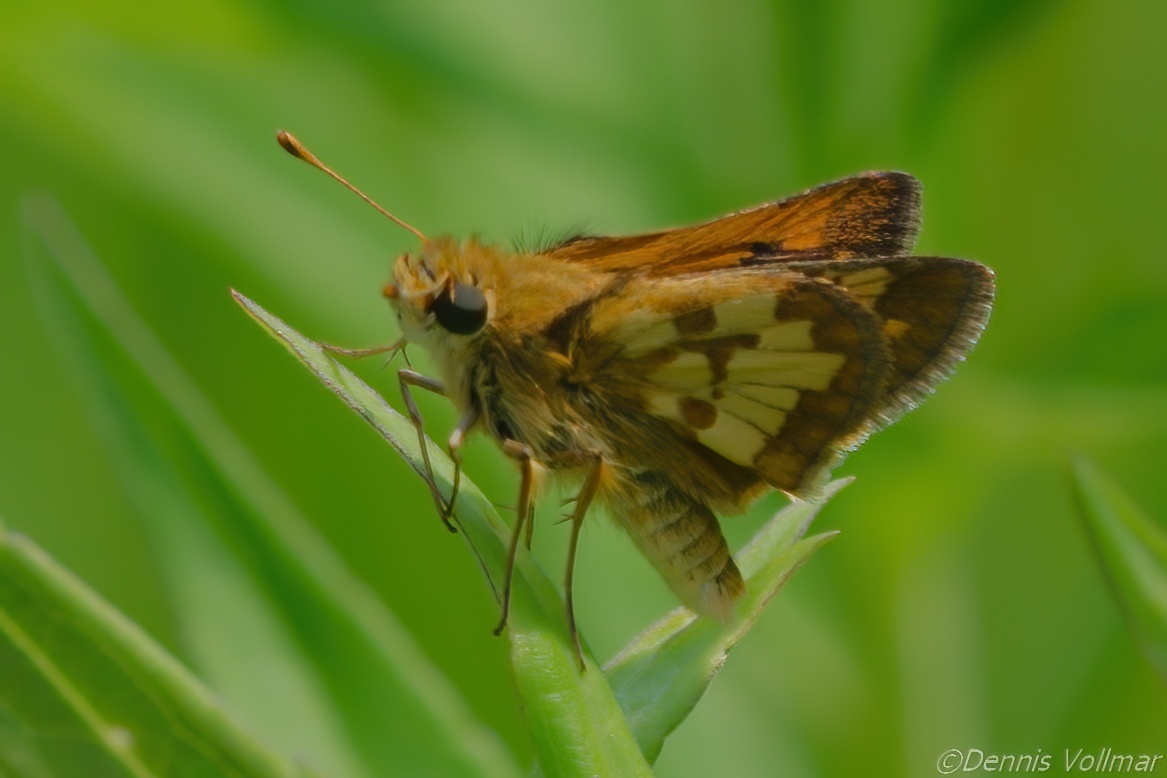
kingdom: Animalia
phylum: Arthropoda
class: Insecta
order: Lepidoptera
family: Hesperiidae
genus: Polites
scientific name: Polites coras
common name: Peck's skipper
